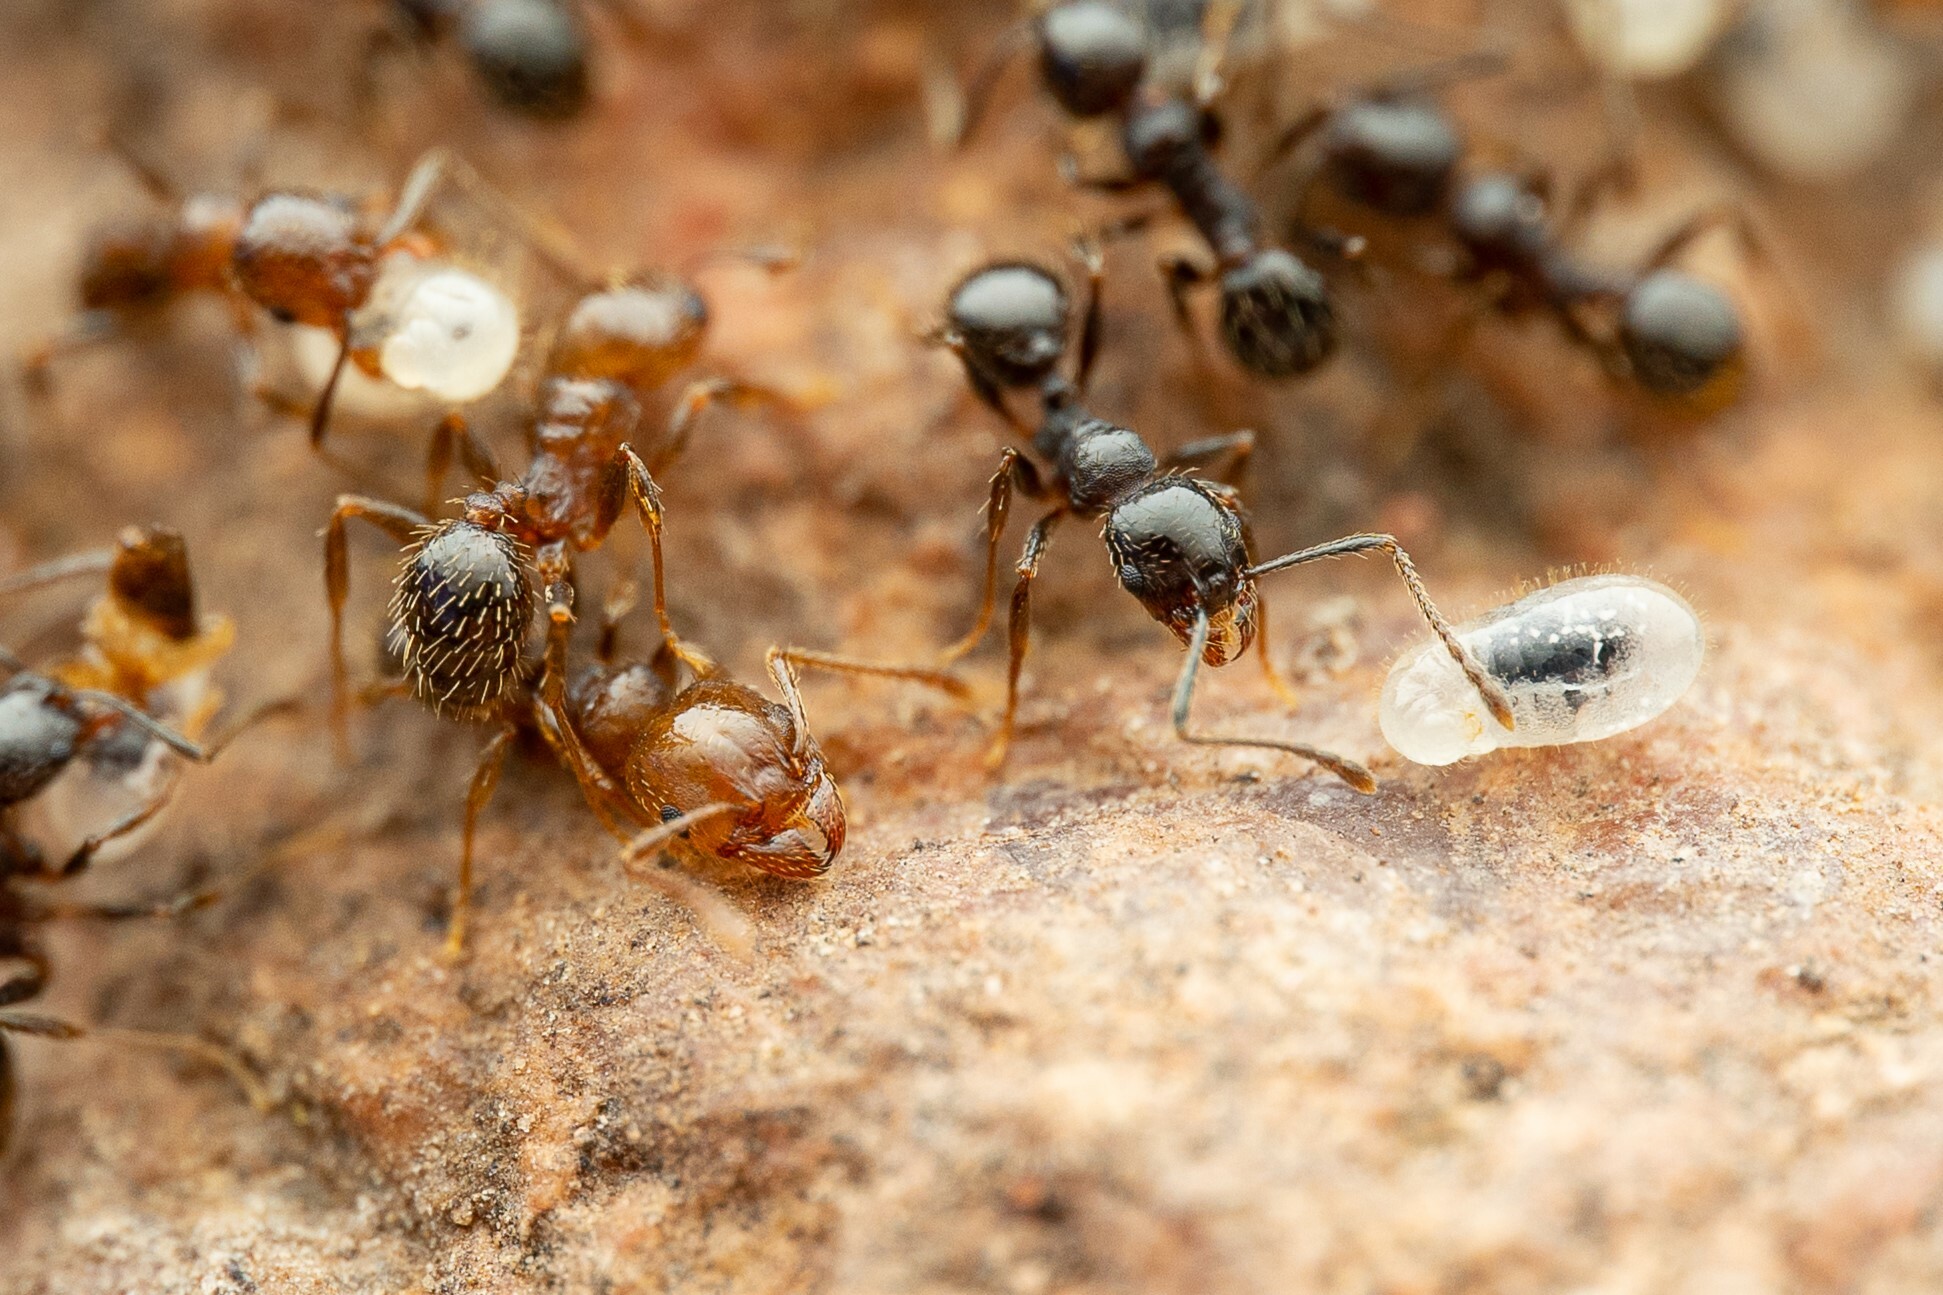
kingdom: Animalia
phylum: Arthropoda
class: Insecta
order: Hymenoptera
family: Formicidae
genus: Pheidole
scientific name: Pheidole
